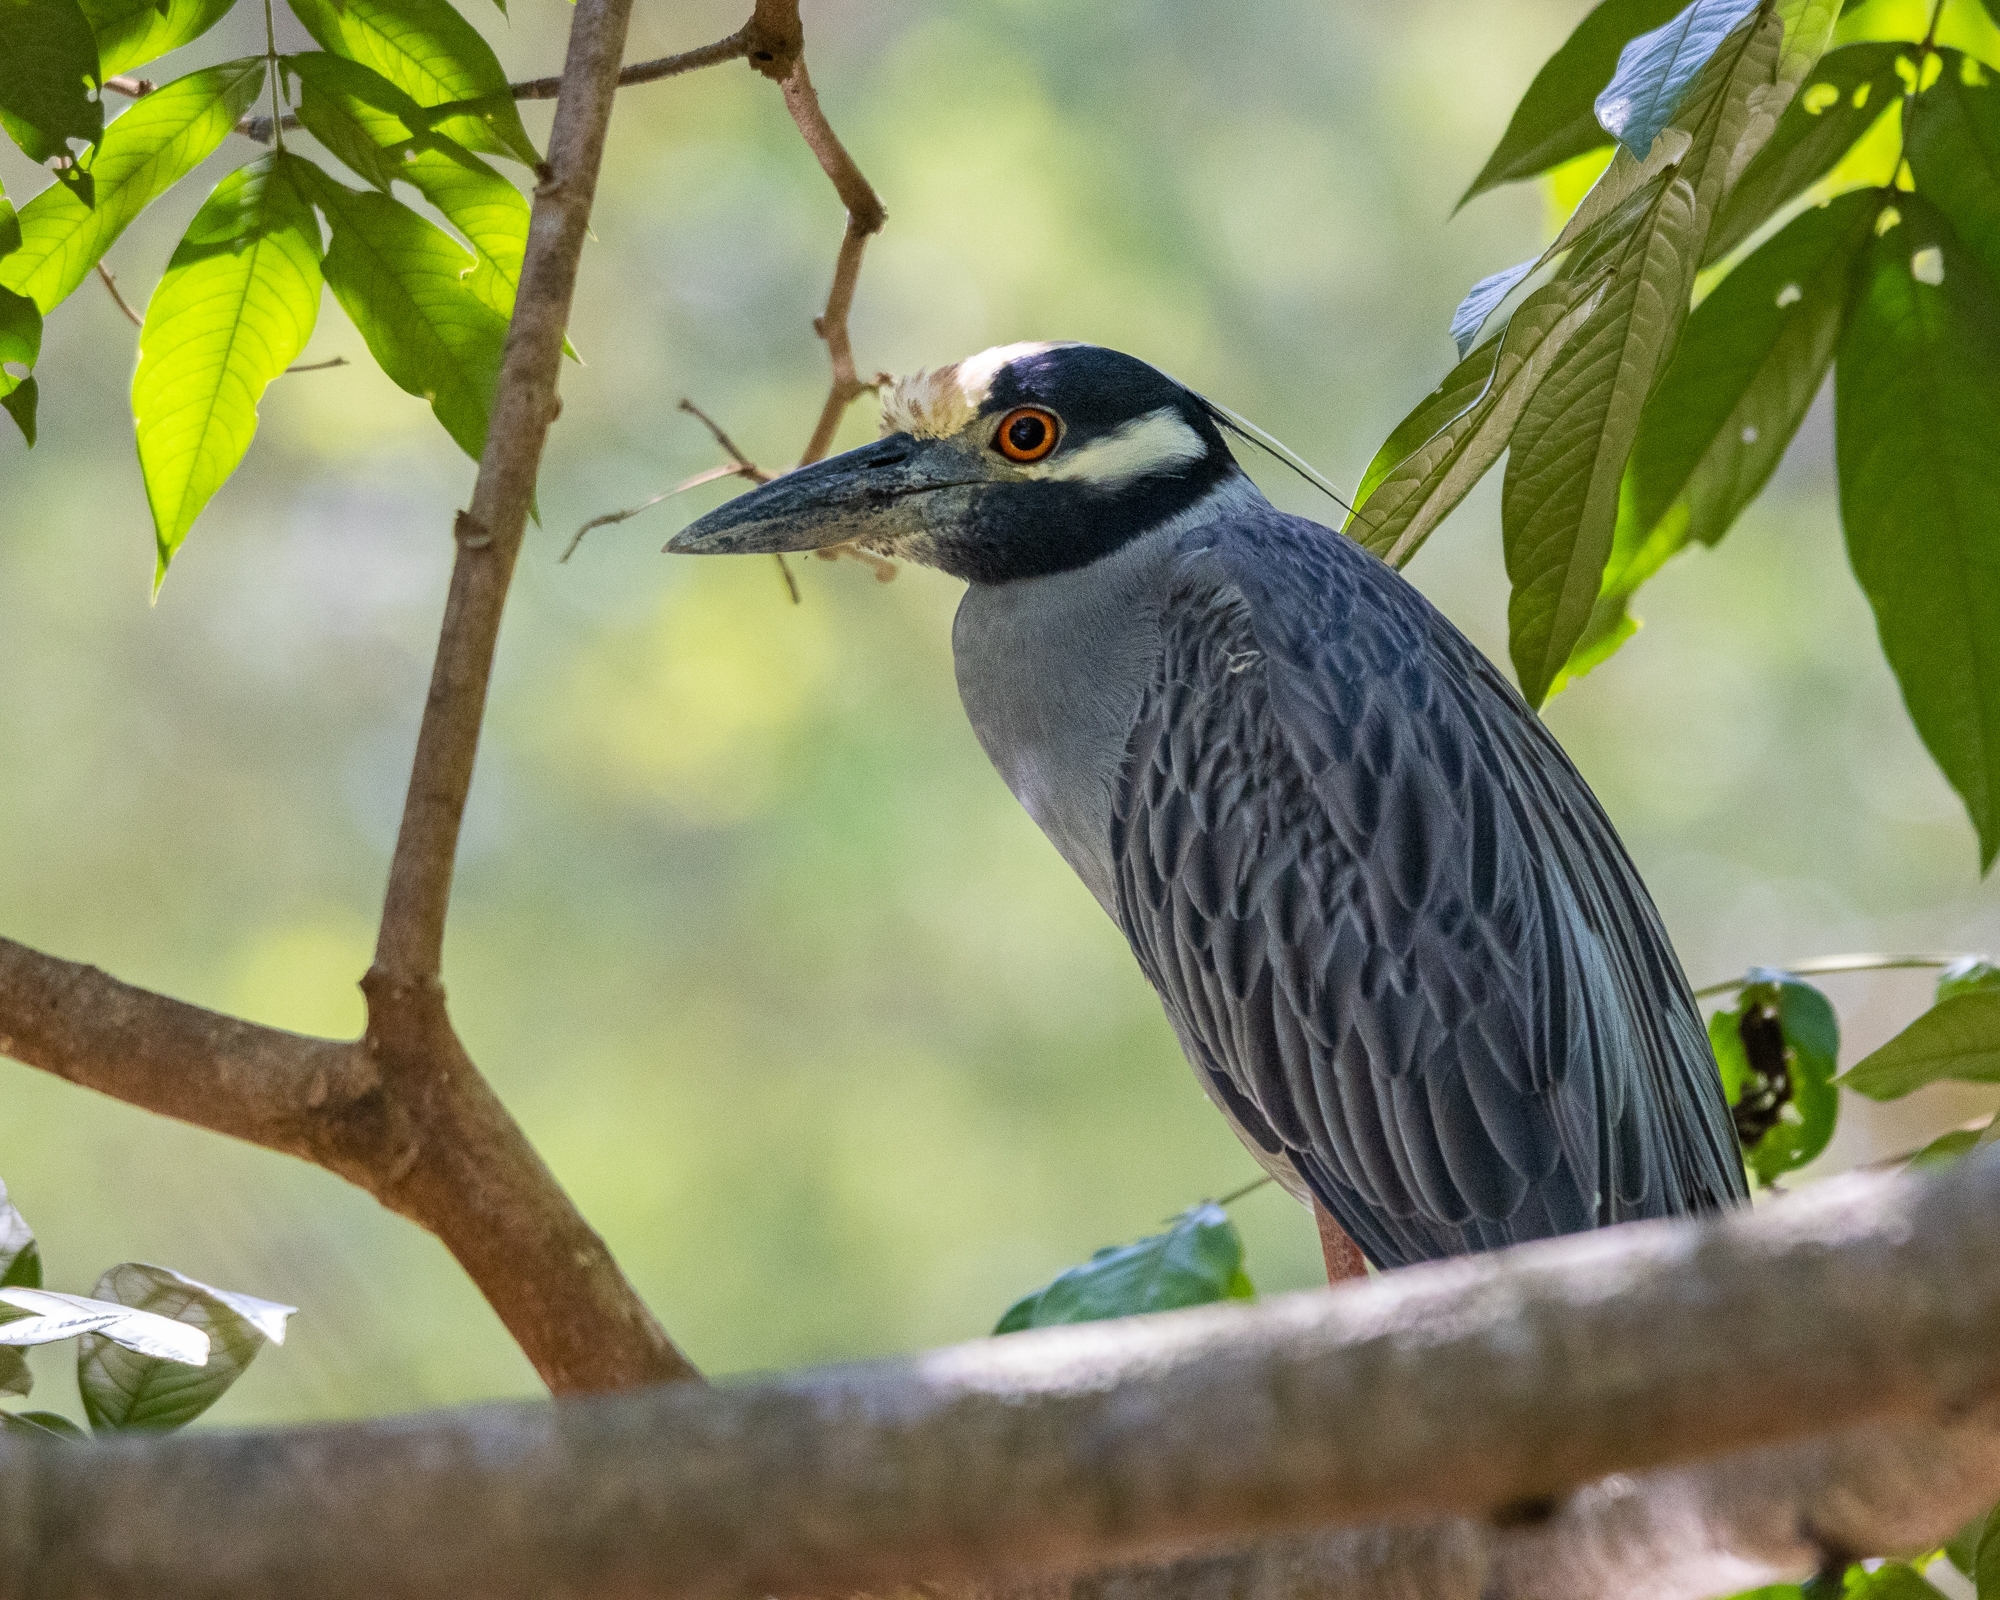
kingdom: Animalia
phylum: Chordata
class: Aves
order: Pelecaniformes
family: Ardeidae
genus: Nyctanassa
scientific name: Nyctanassa violacea
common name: Yellow-crowned night heron
